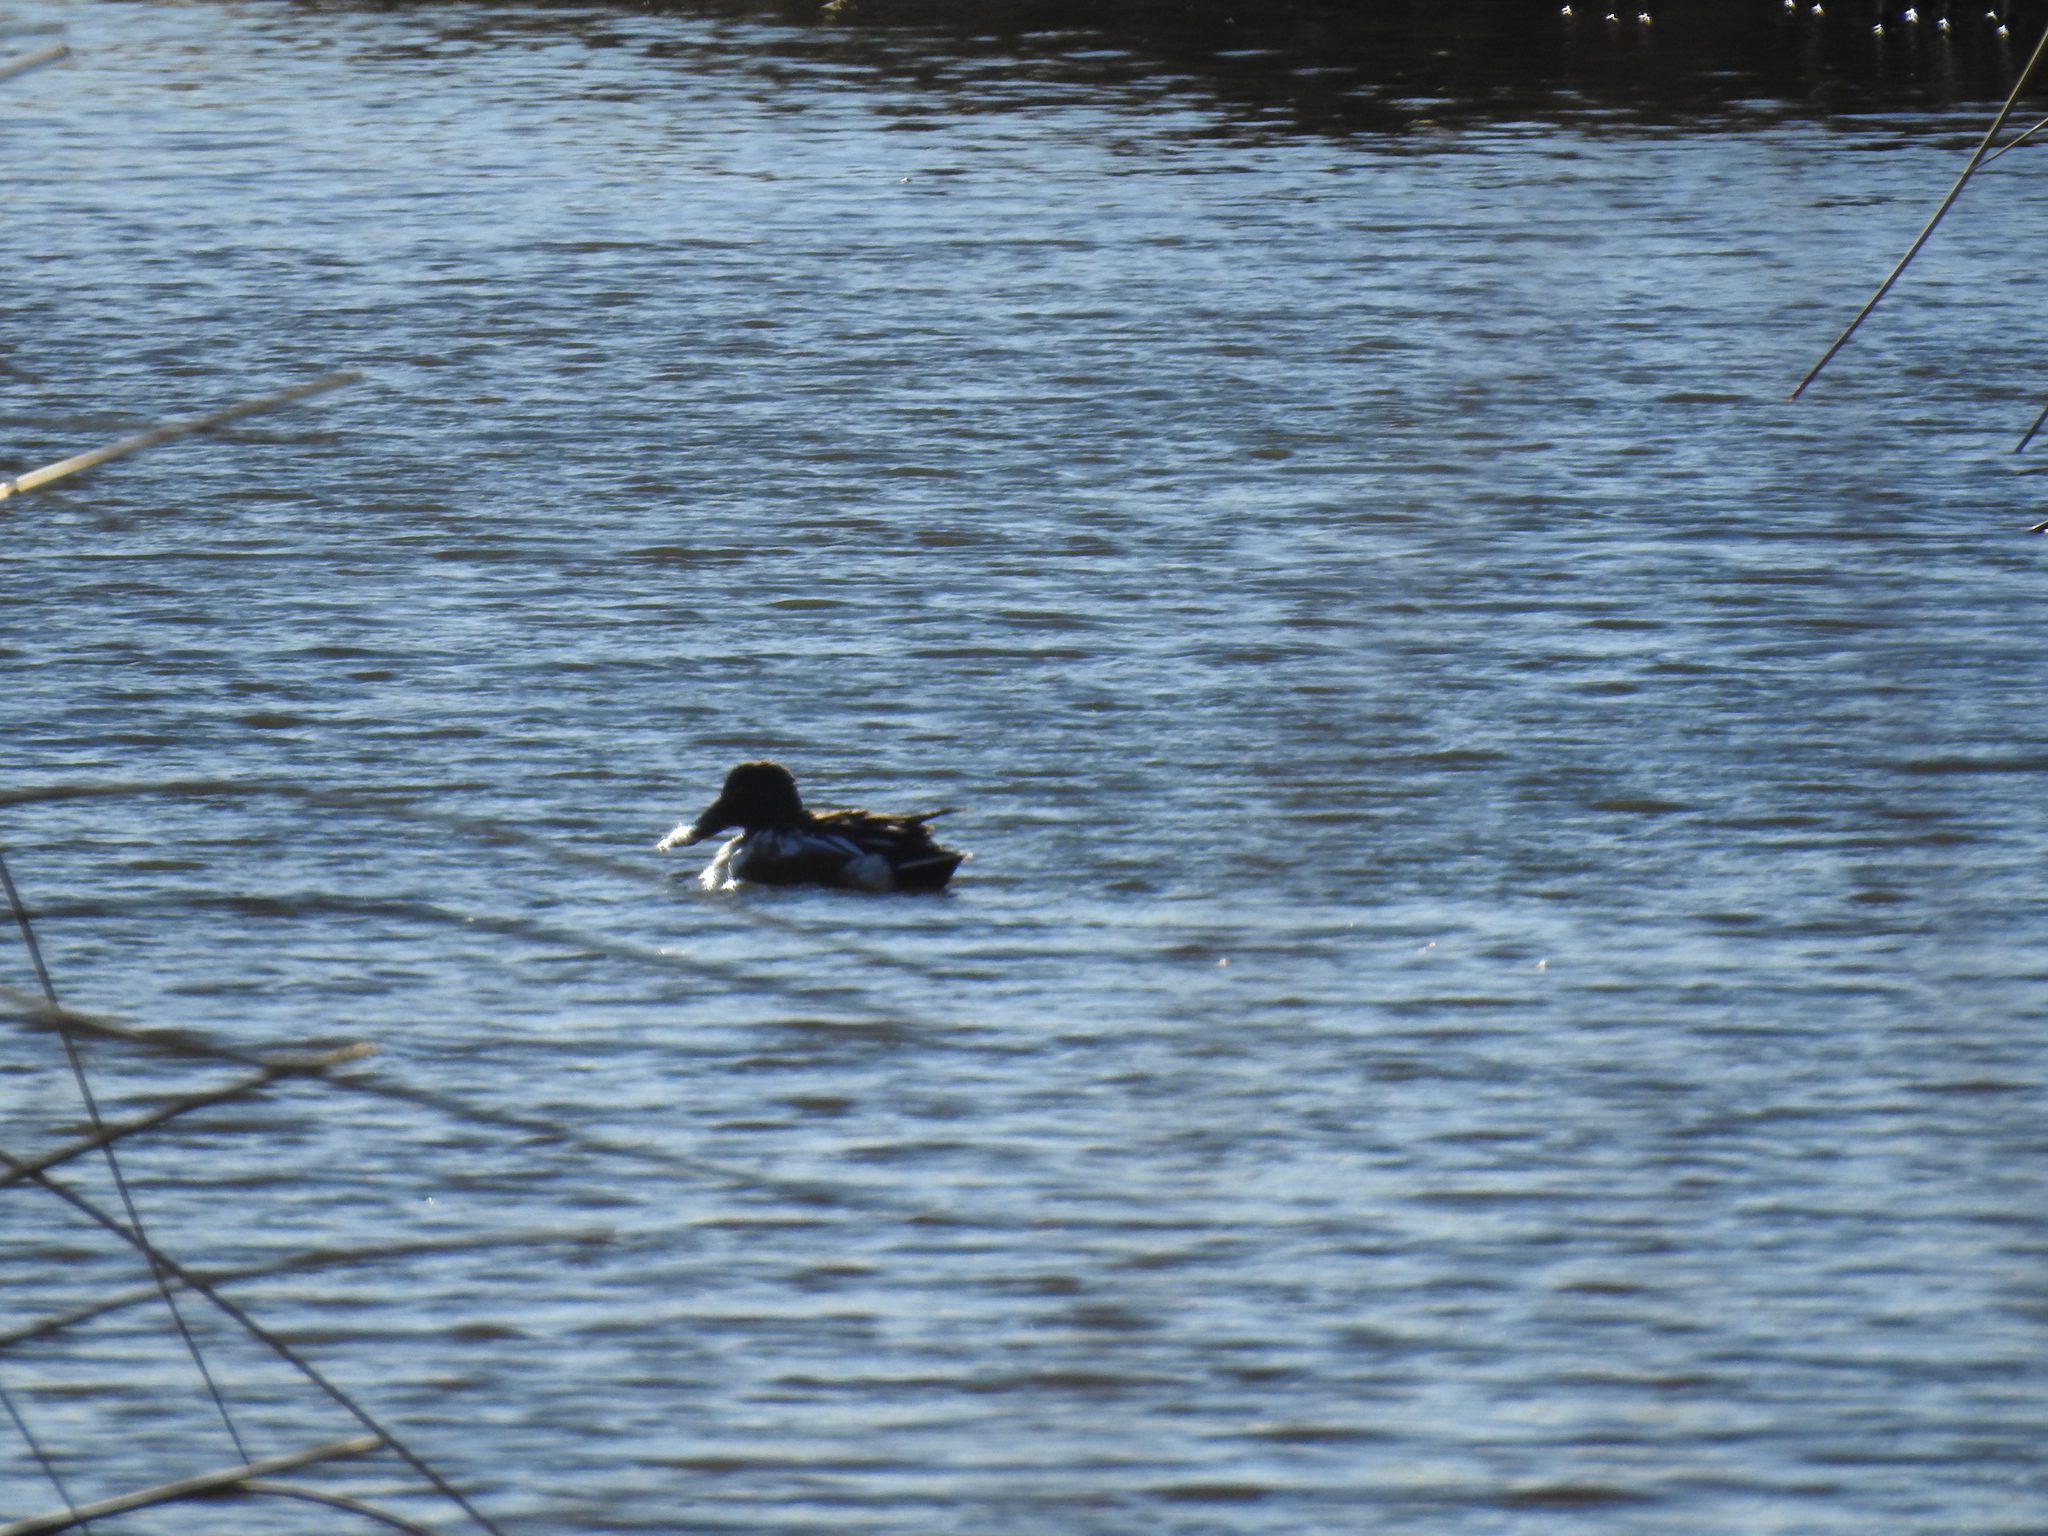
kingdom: Animalia
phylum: Chordata
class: Aves
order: Anseriformes
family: Anatidae
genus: Spatula
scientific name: Spatula clypeata
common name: Northern shoveler
